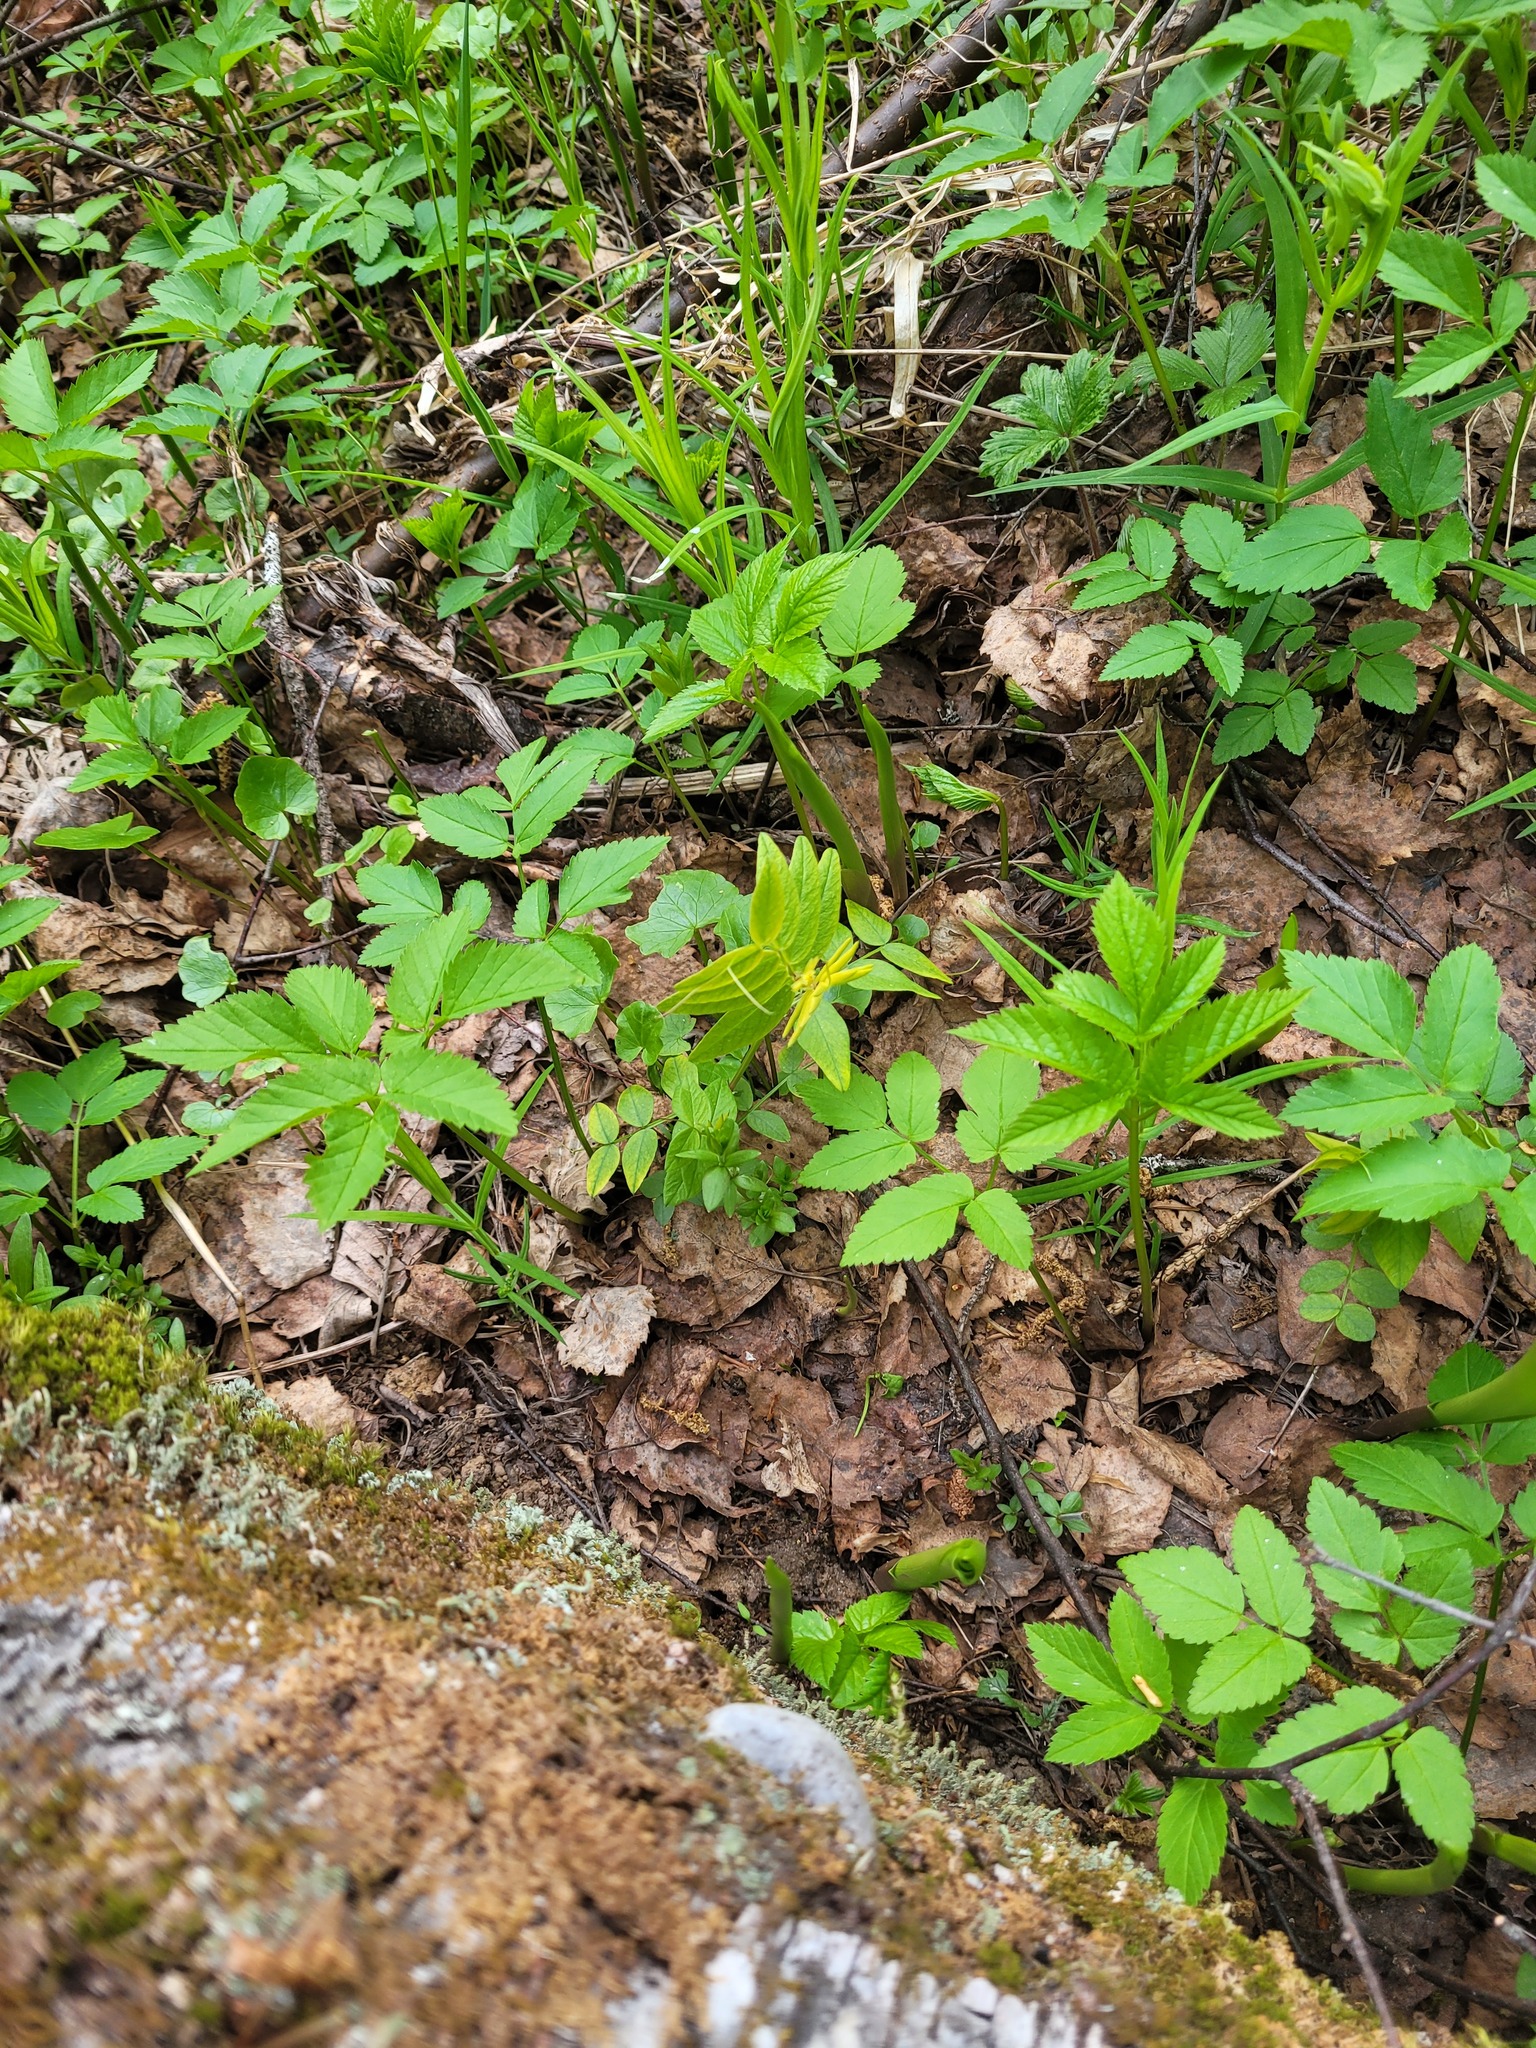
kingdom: Plantae
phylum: Tracheophyta
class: Magnoliopsida
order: Fabales
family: Fabaceae
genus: Vicia
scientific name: Vicia sepium
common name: Bush vetch
